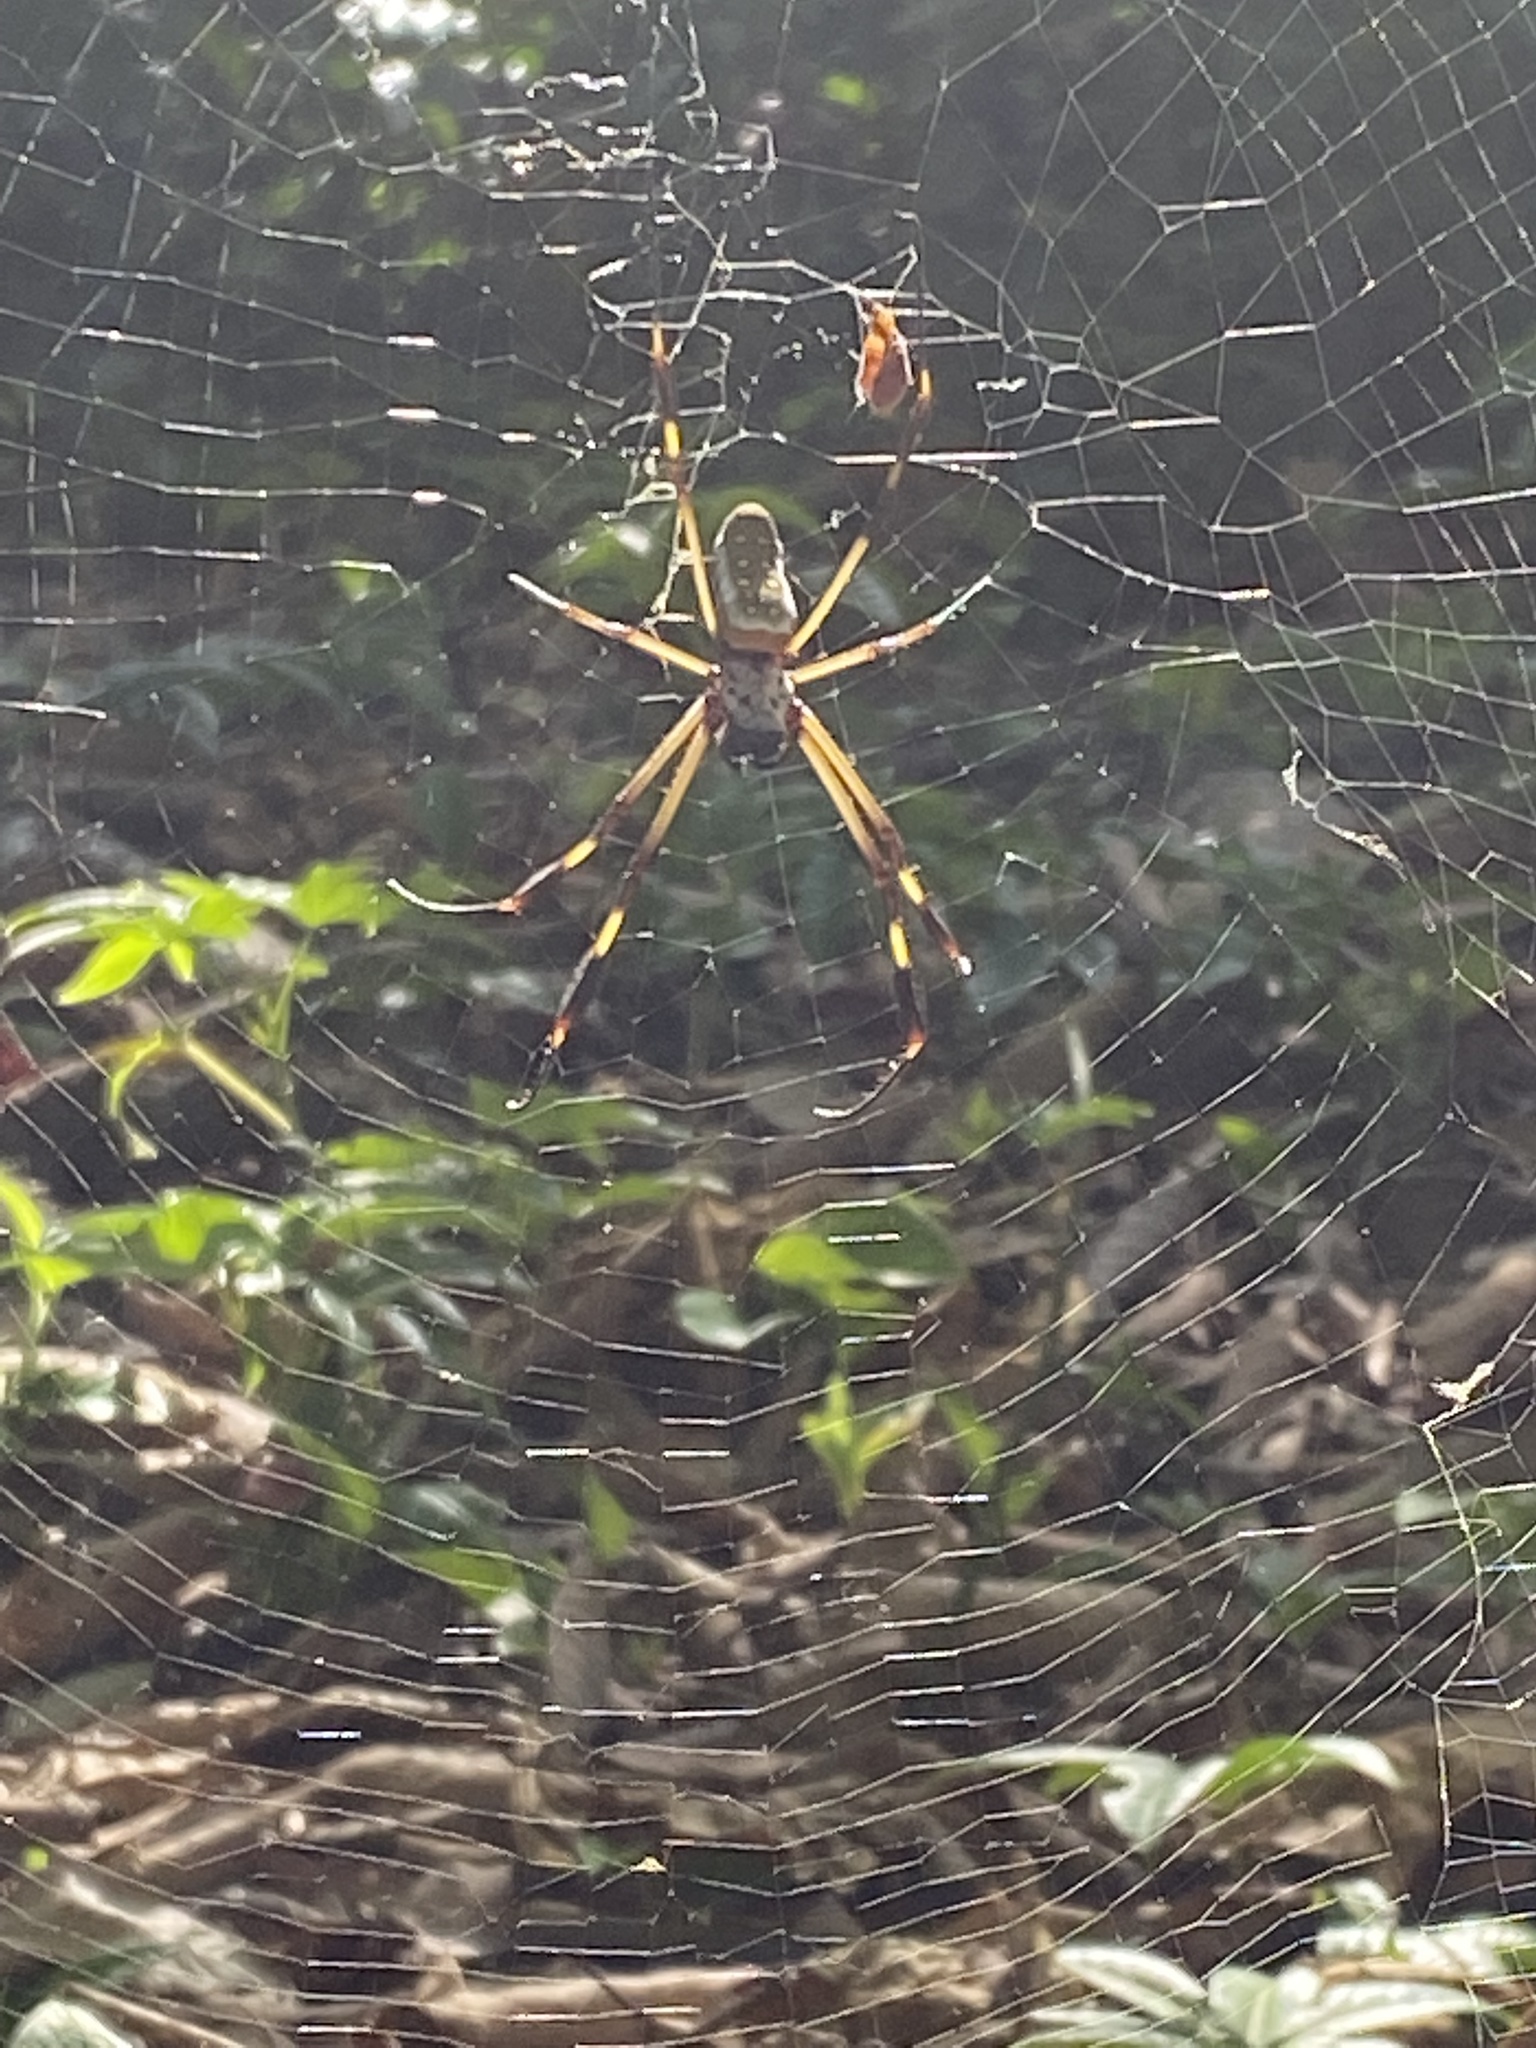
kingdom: Animalia
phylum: Arthropoda
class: Arachnida
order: Araneae
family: Araneidae
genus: Trichonephila
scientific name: Trichonephila clavipes
